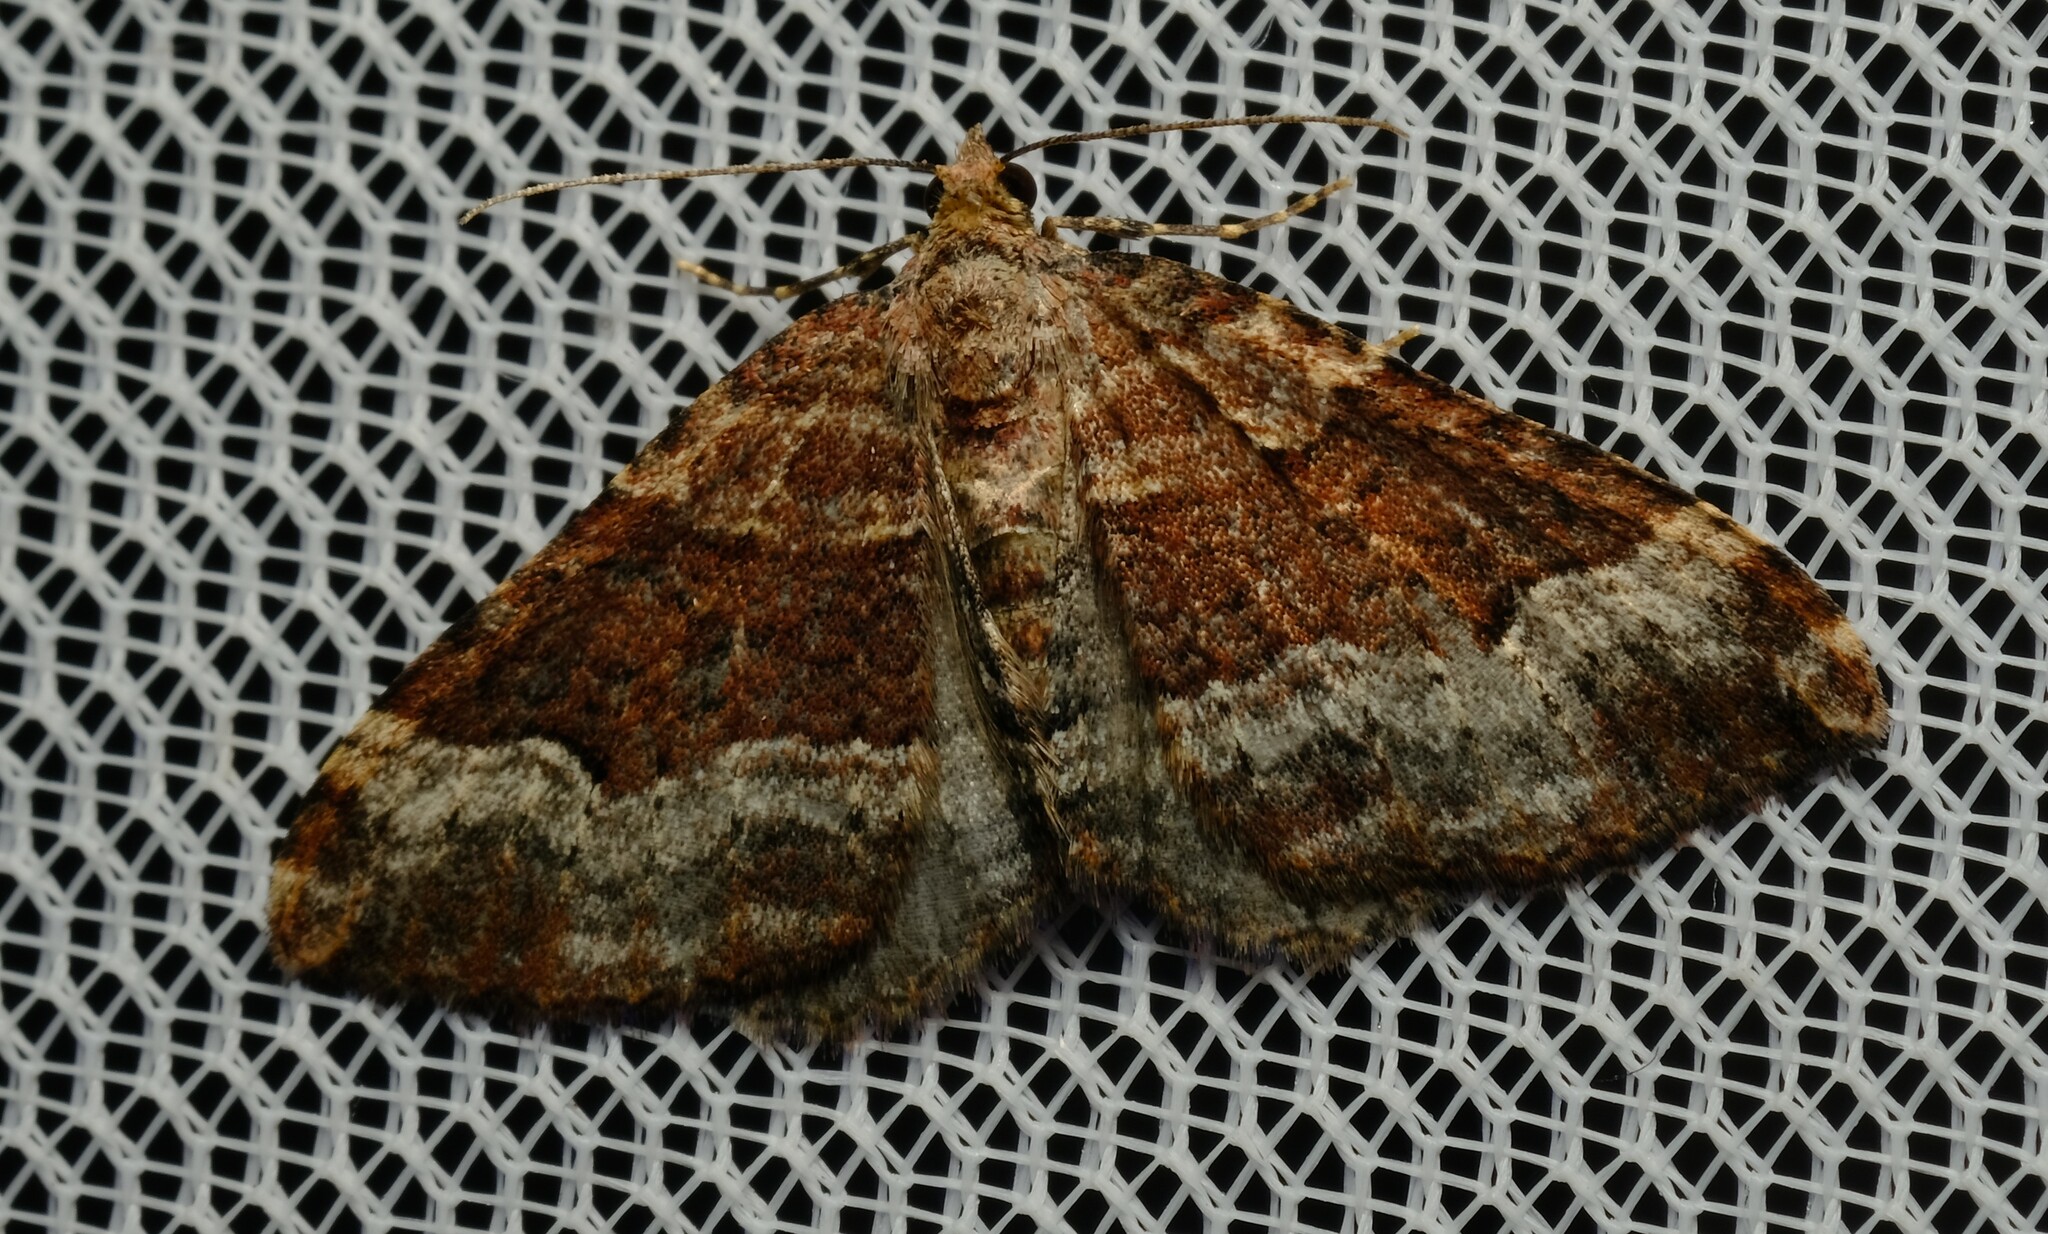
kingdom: Animalia
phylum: Arthropoda
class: Insecta
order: Lepidoptera
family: Geometridae
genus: Epyaxa
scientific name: Epyaxa subidaria
